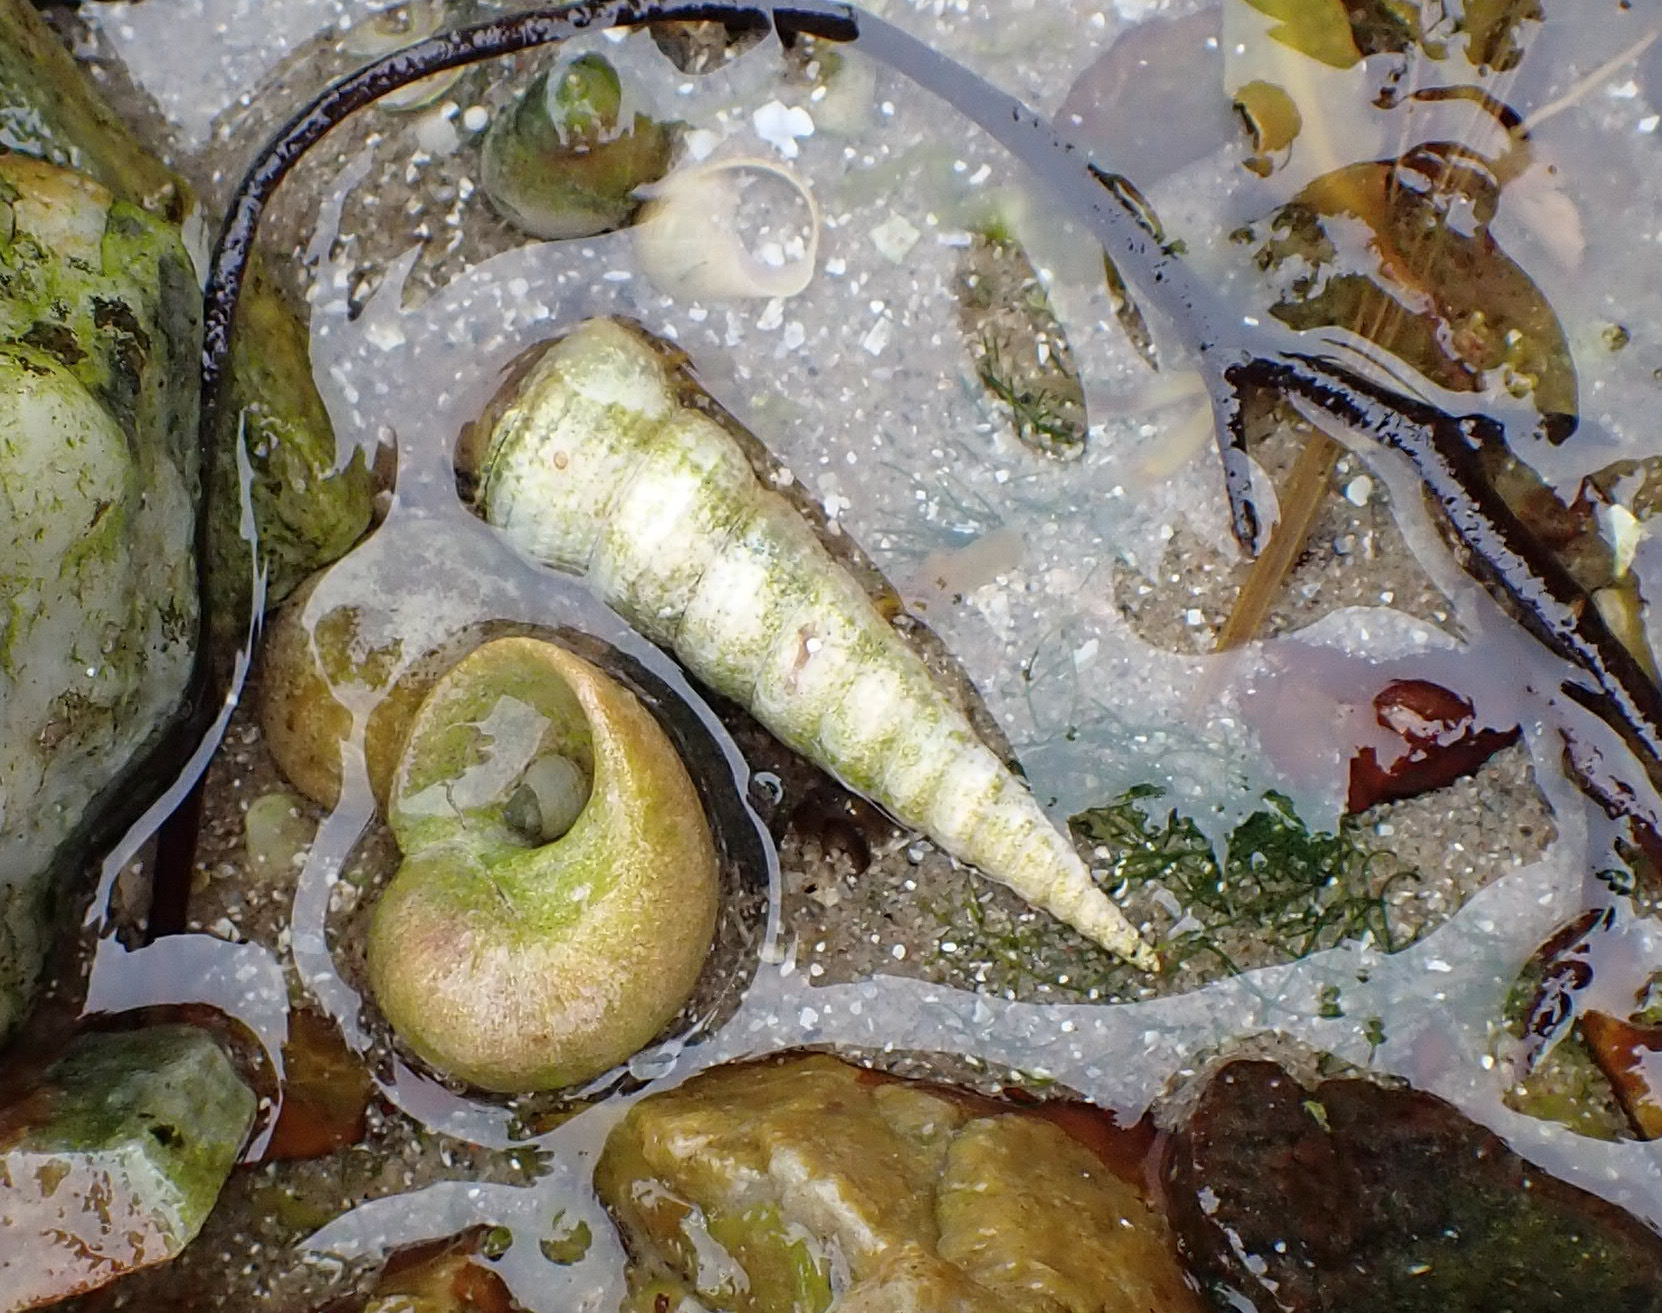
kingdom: Animalia
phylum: Mollusca
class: Gastropoda
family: Turritellidae
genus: Turritellinella
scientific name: Turritellinella tricarinata
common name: Auger shell
